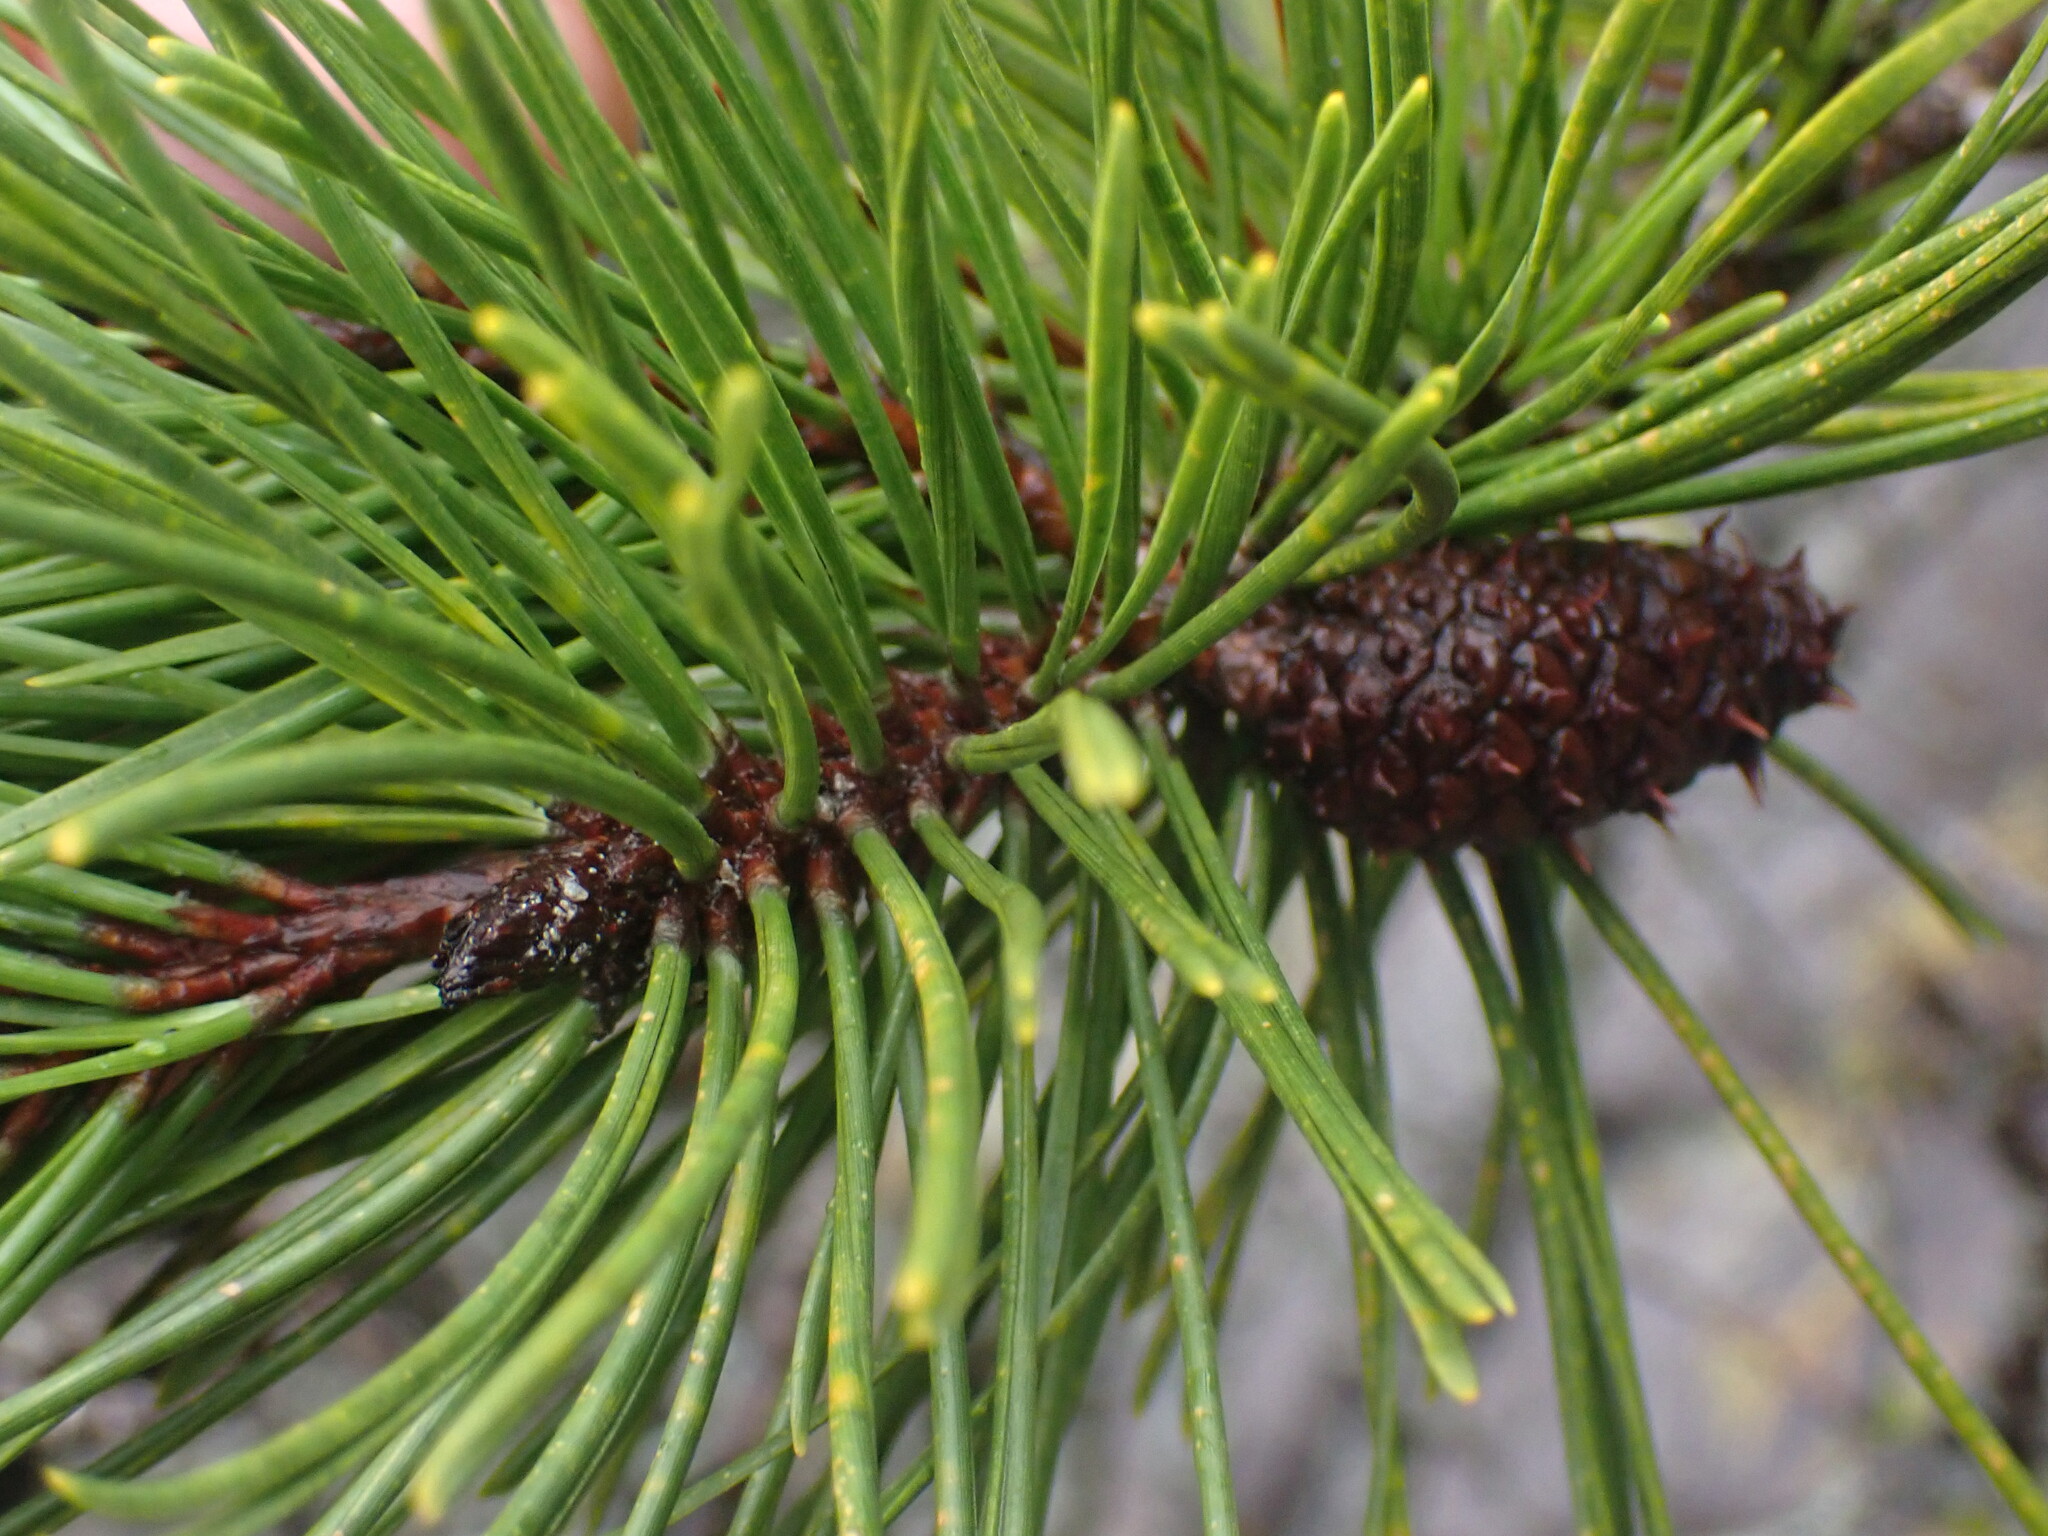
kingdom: Plantae
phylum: Tracheophyta
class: Pinopsida
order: Pinales
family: Pinaceae
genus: Pinus
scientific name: Pinus contorta
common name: Lodgepole pine
